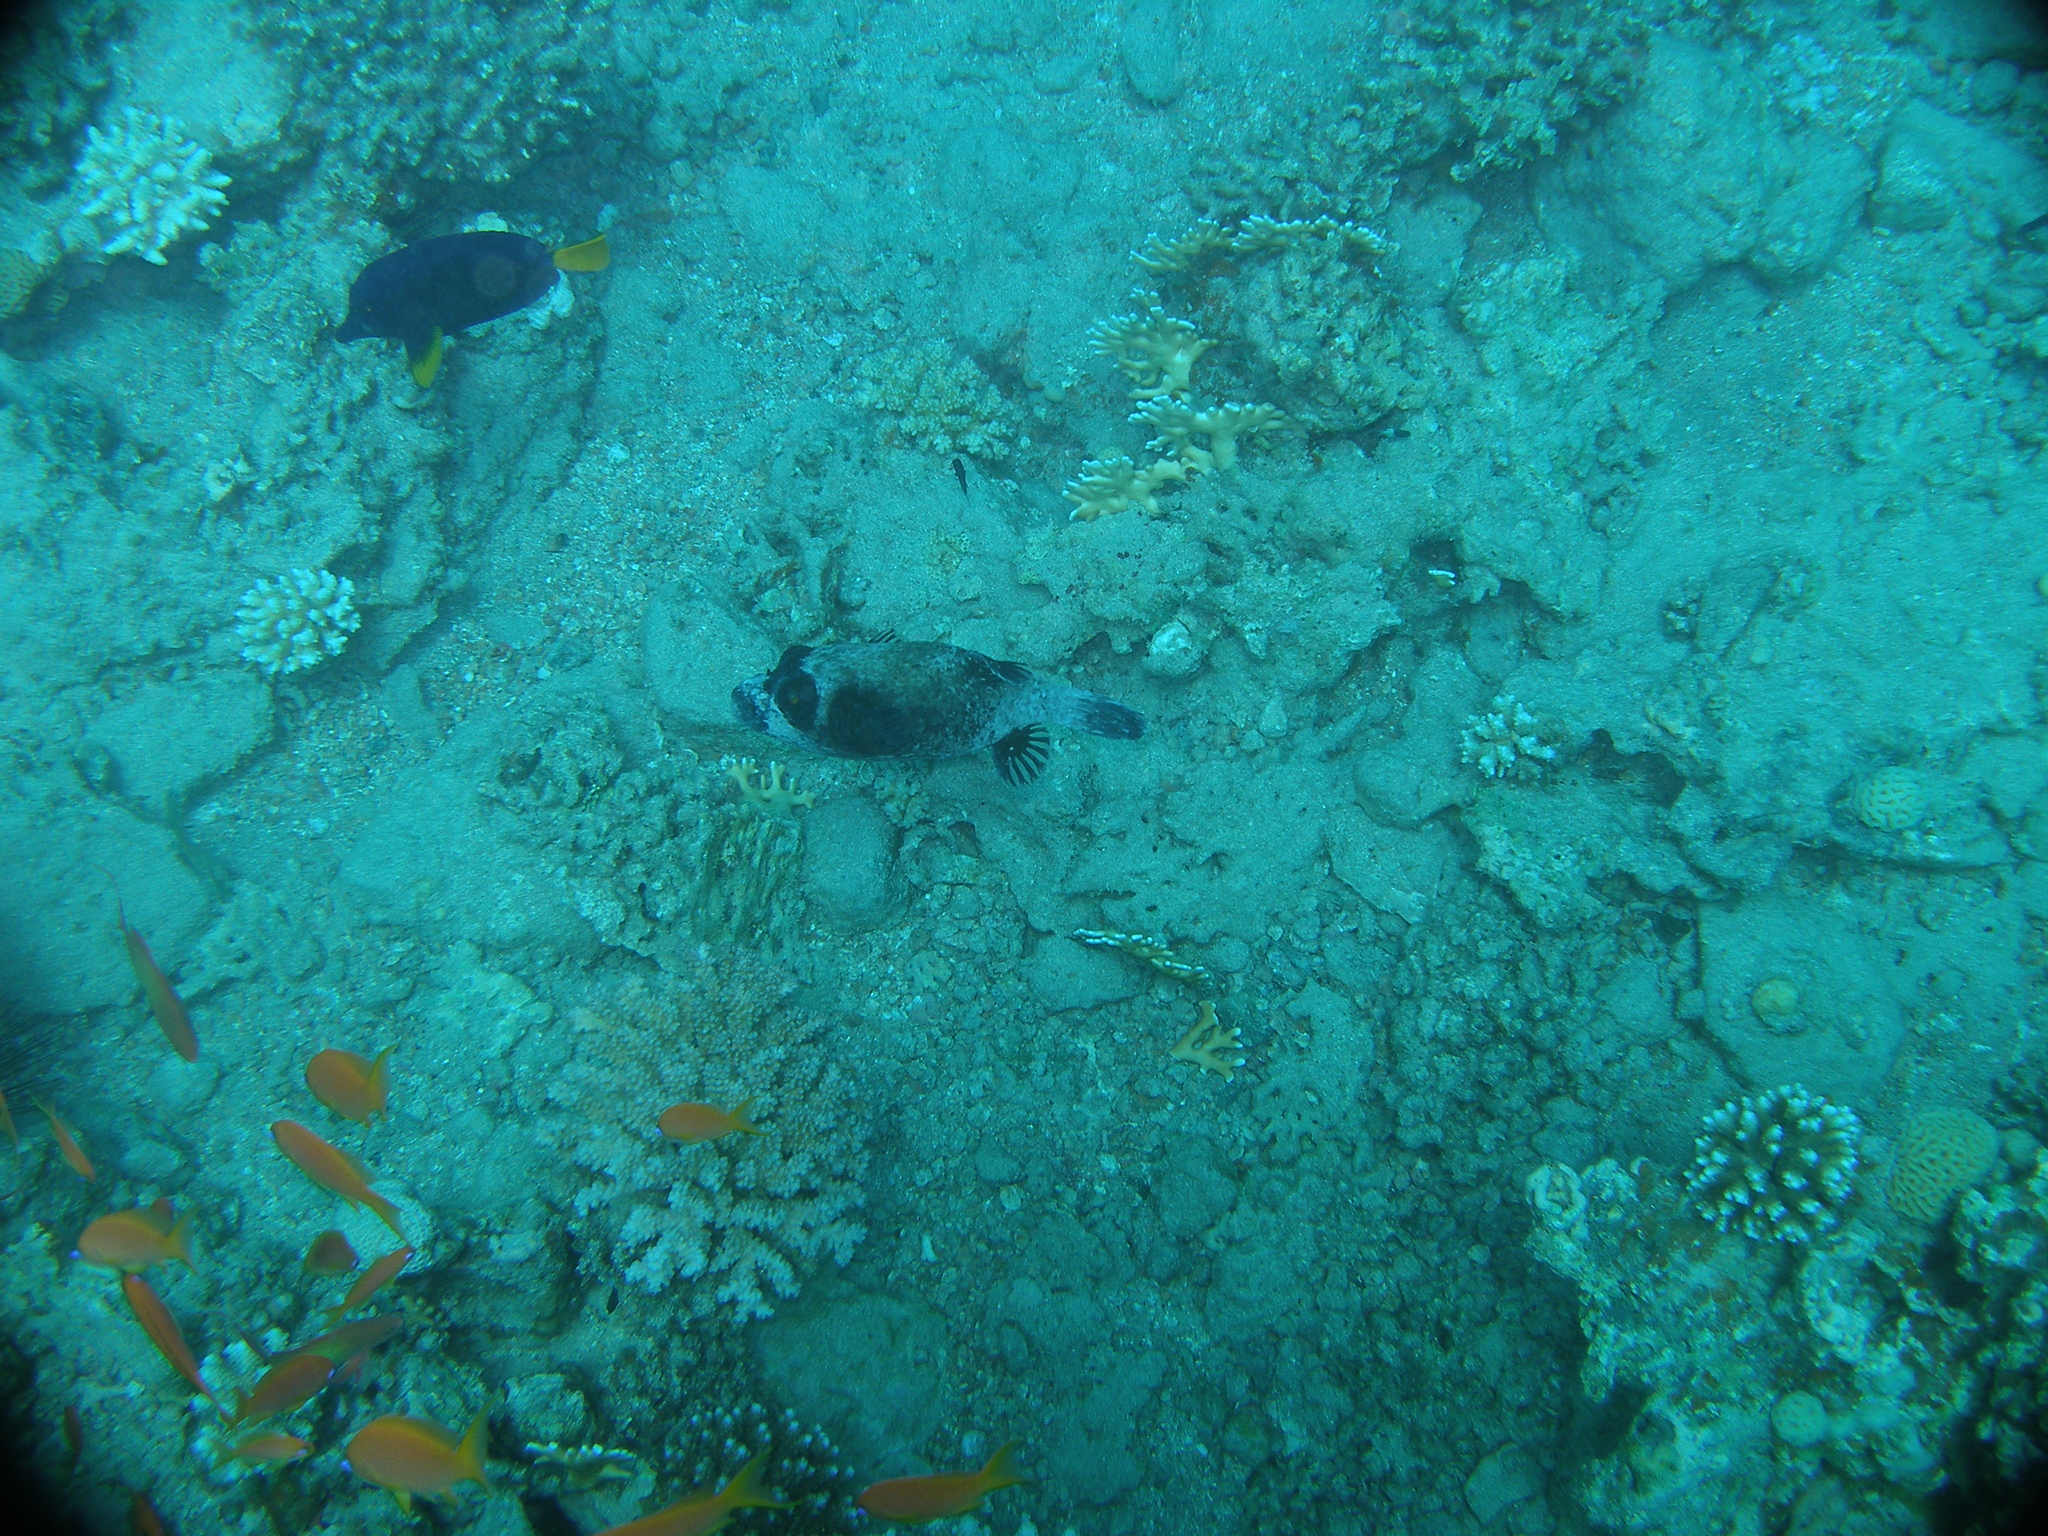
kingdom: Animalia
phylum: Chordata
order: Tetraodontiformes
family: Tetraodontidae
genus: Arothron
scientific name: Arothron diadematus
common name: Masked puffer
